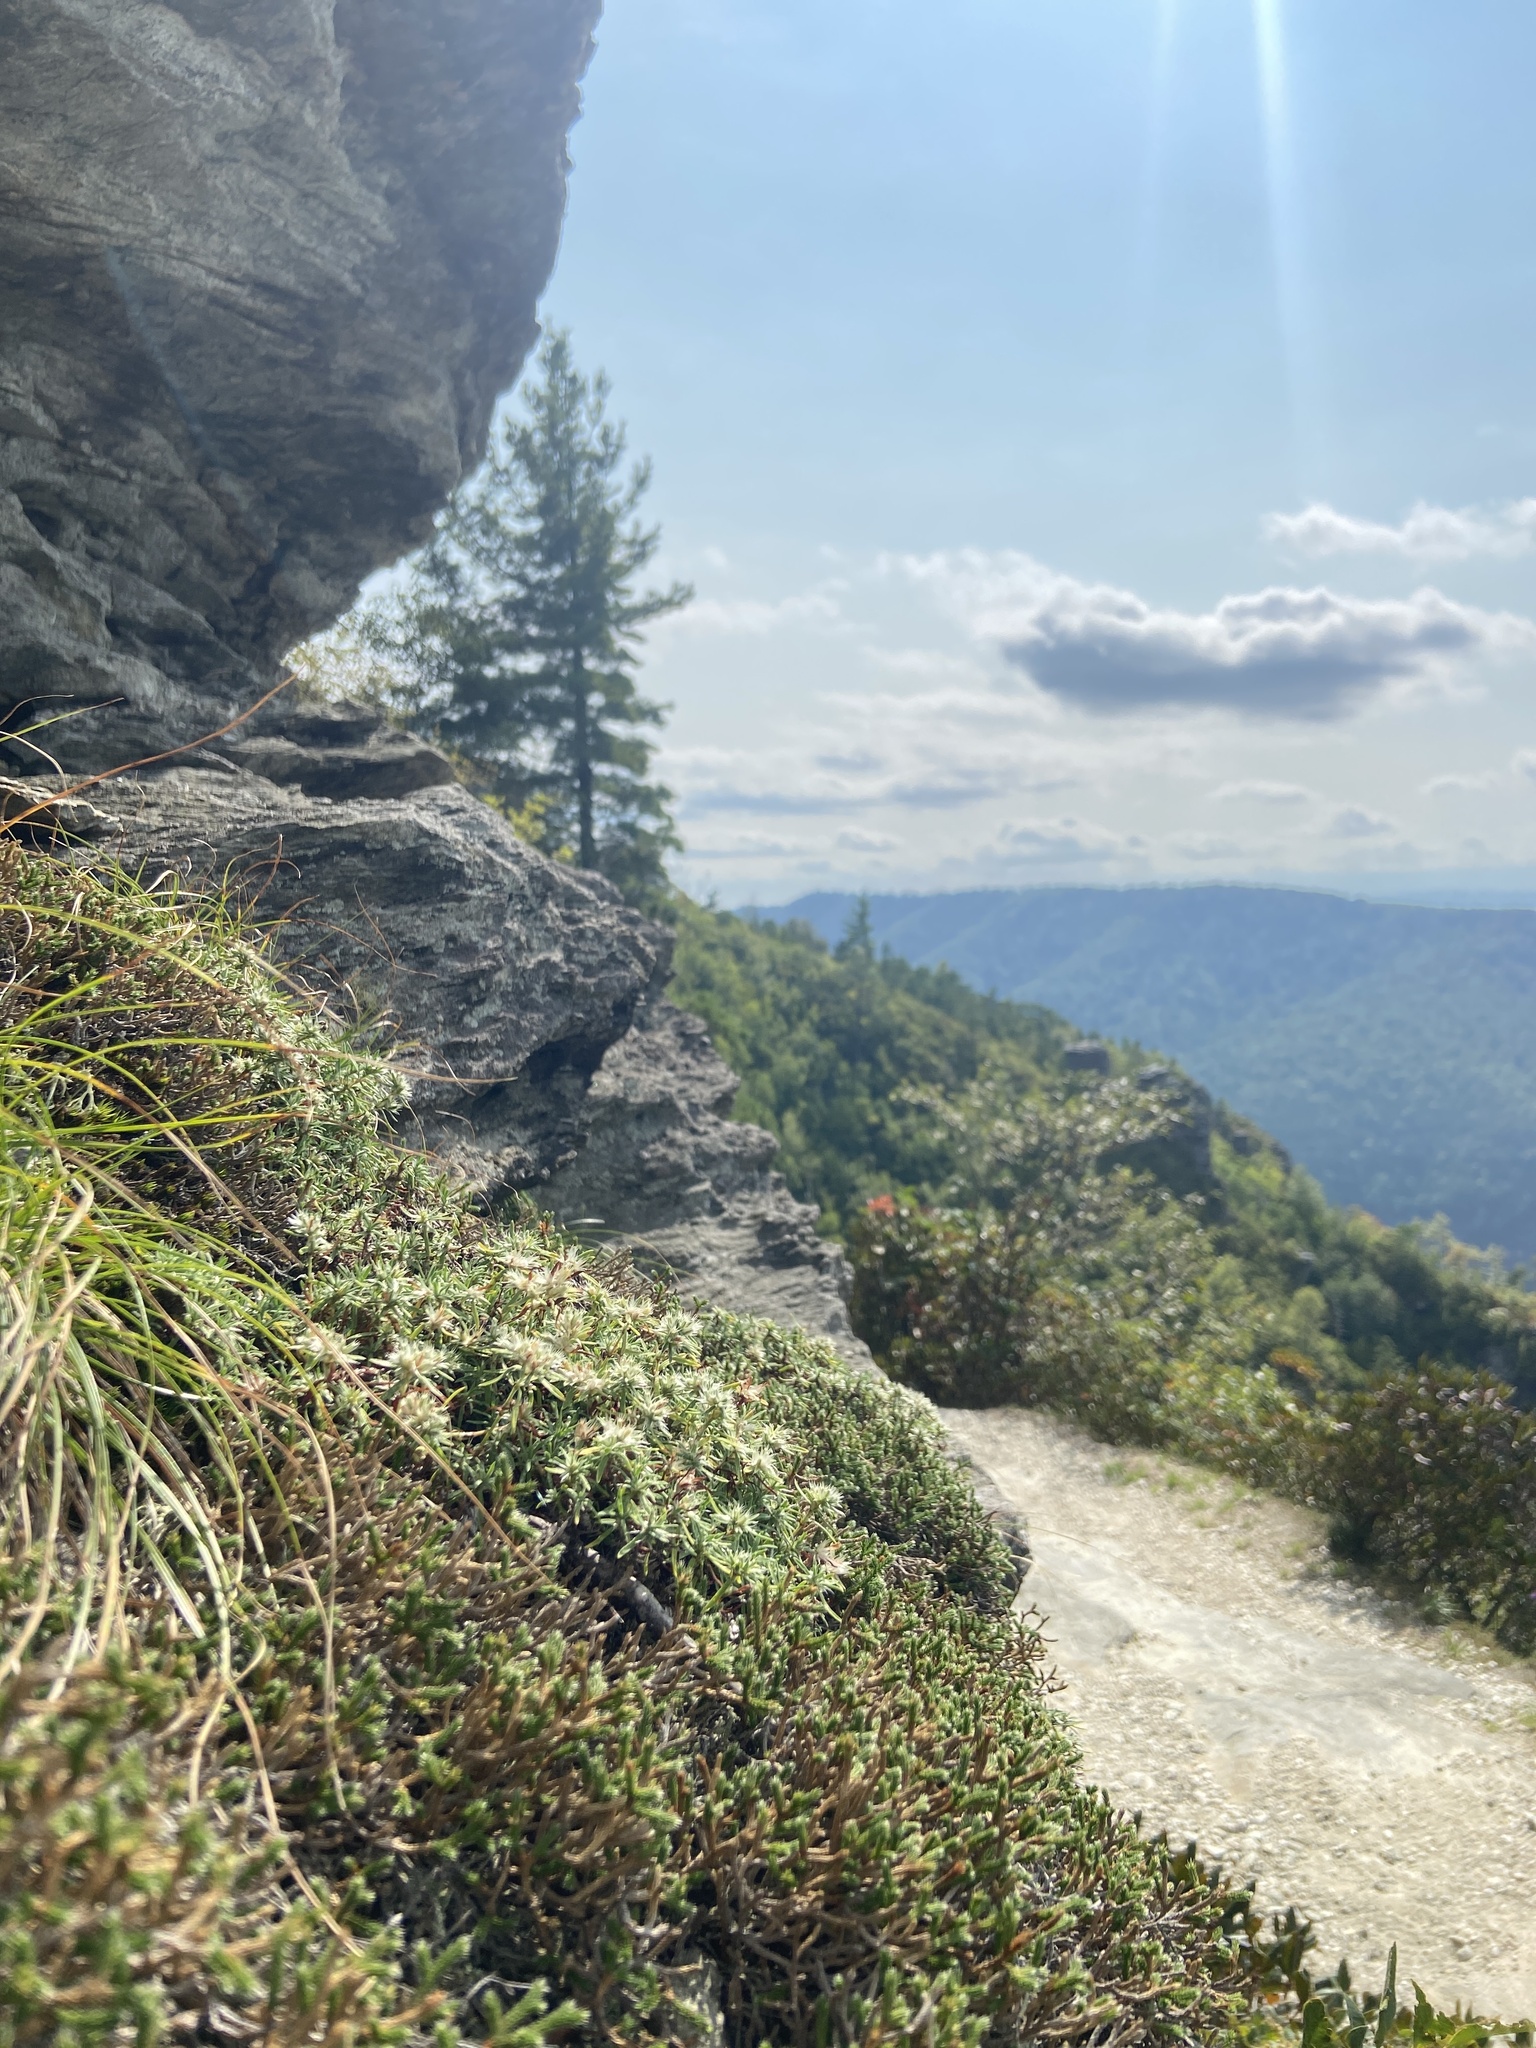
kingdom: Plantae
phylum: Tracheophyta
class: Magnoliopsida
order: Caryophyllales
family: Caryophyllaceae
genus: Paronychia
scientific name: Paronychia argyrocoma
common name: Silverling
